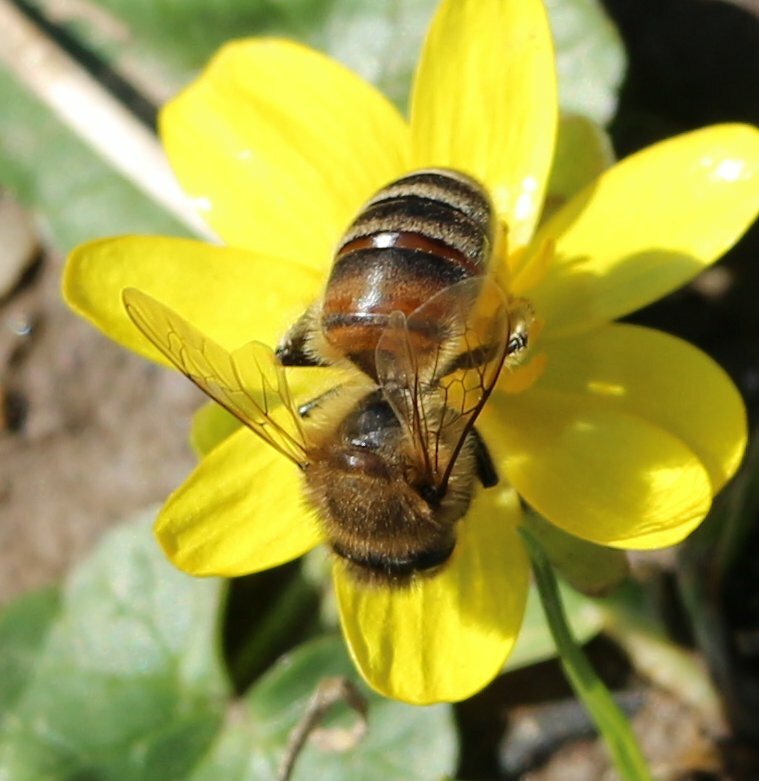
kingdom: Animalia
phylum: Arthropoda
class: Insecta
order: Hymenoptera
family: Apidae
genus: Apis
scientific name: Apis mellifera
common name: Honey bee
